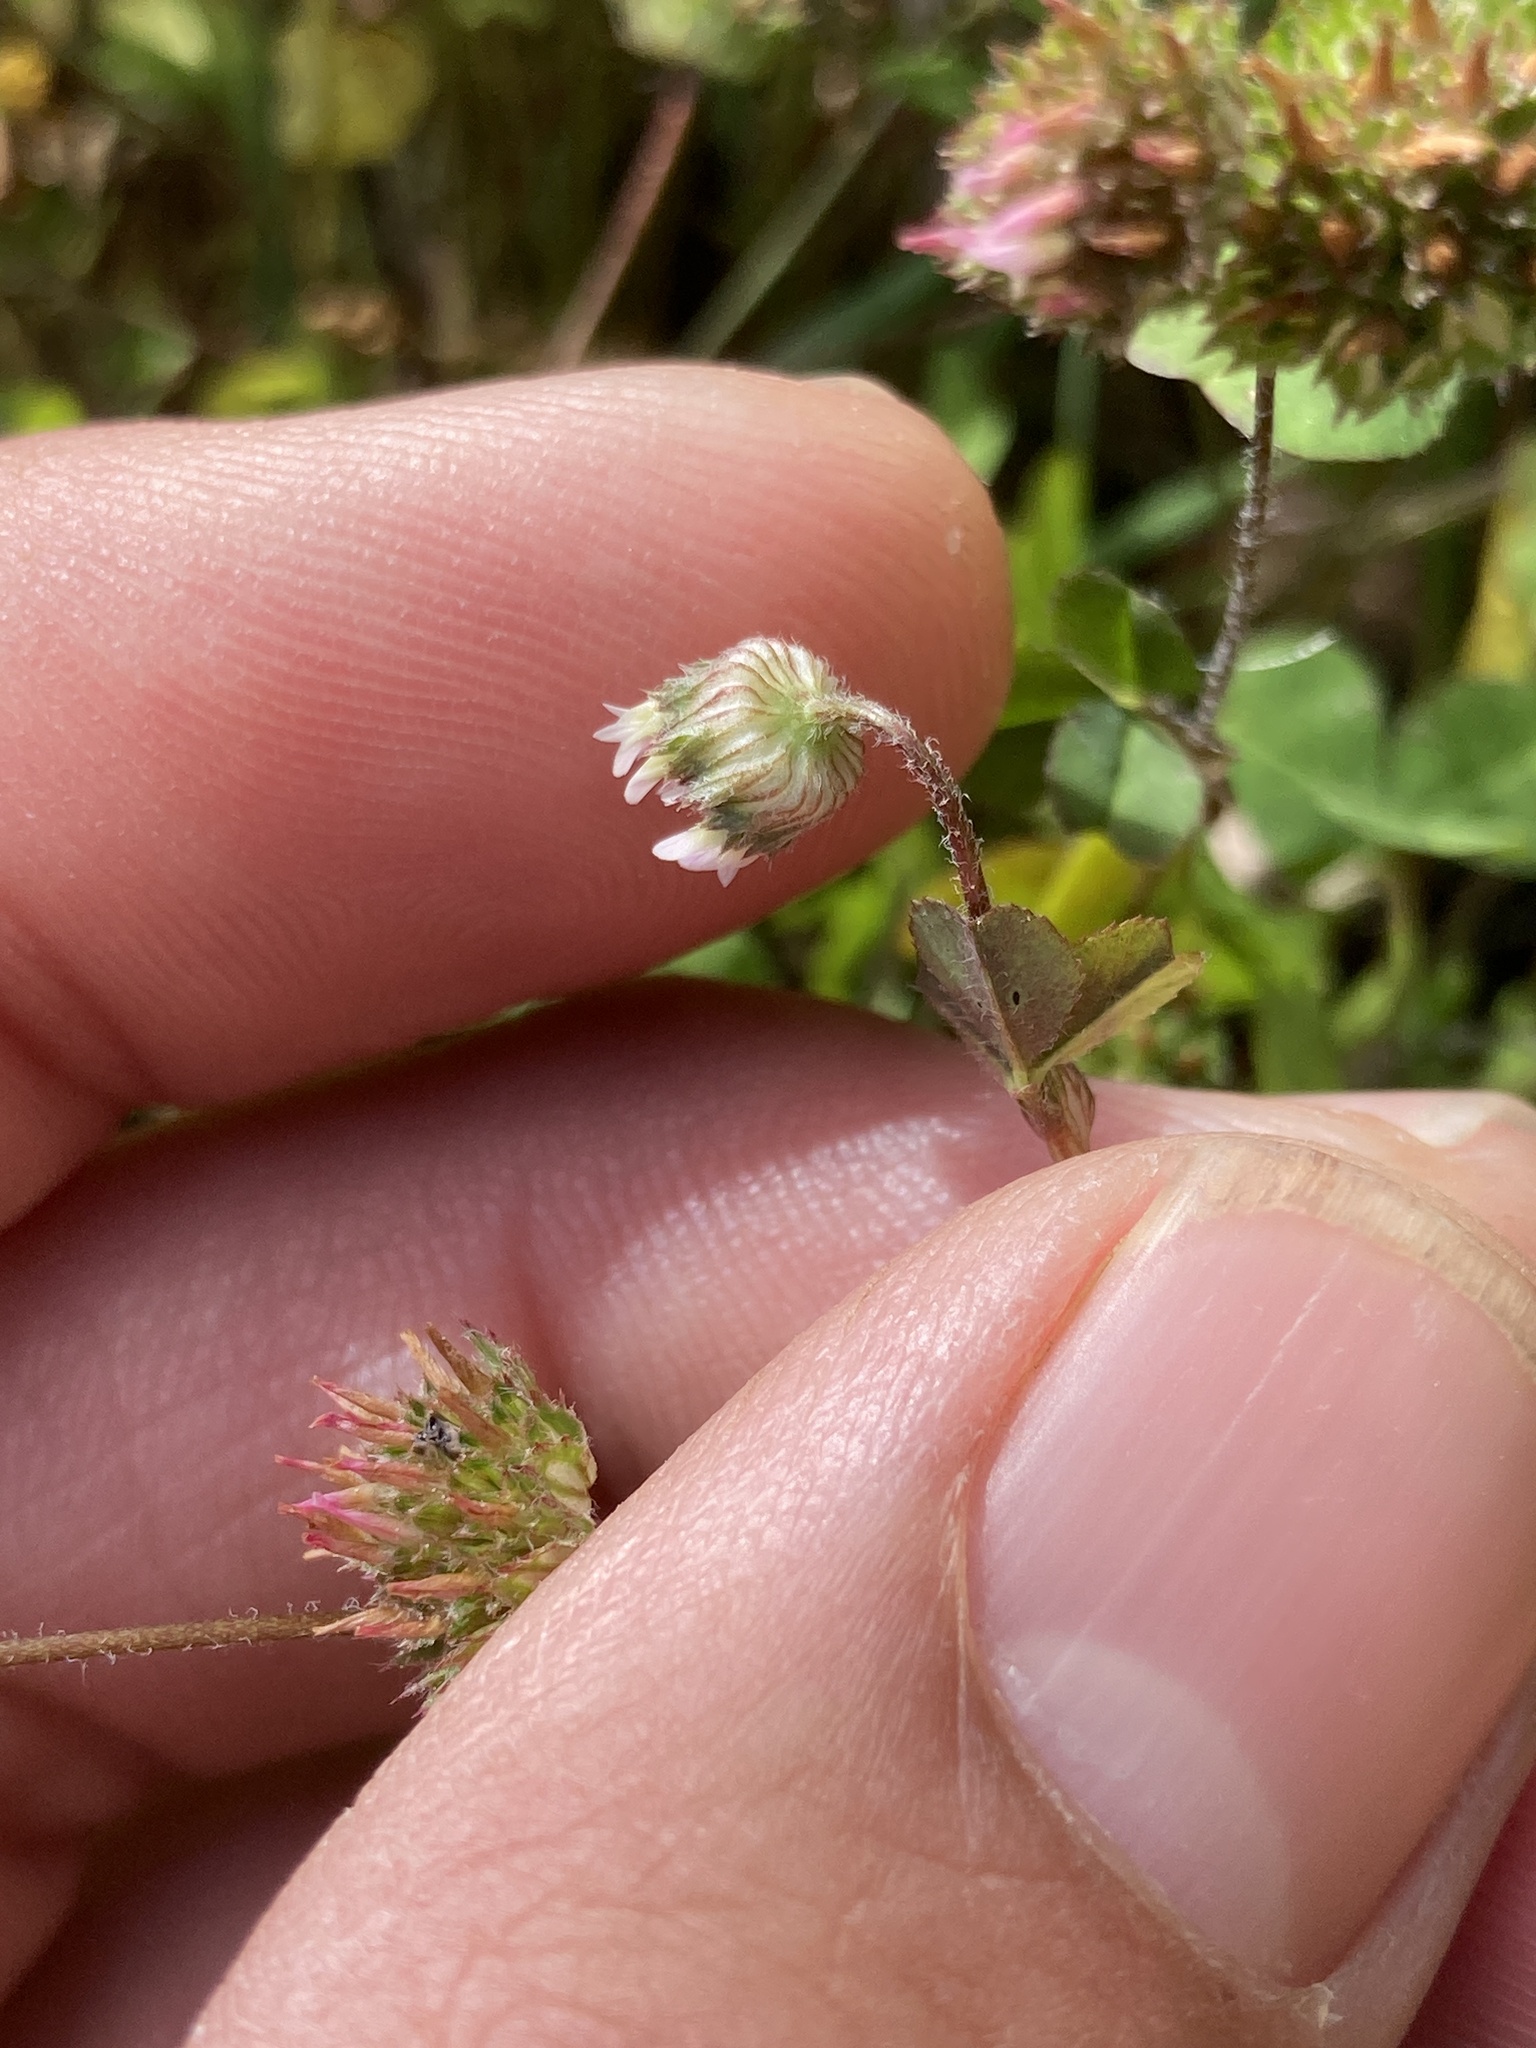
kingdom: Plantae
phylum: Tracheophyta
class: Magnoliopsida
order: Fabales
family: Fabaceae
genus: Trifolium
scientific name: Trifolium microdon
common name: Thimble clover
